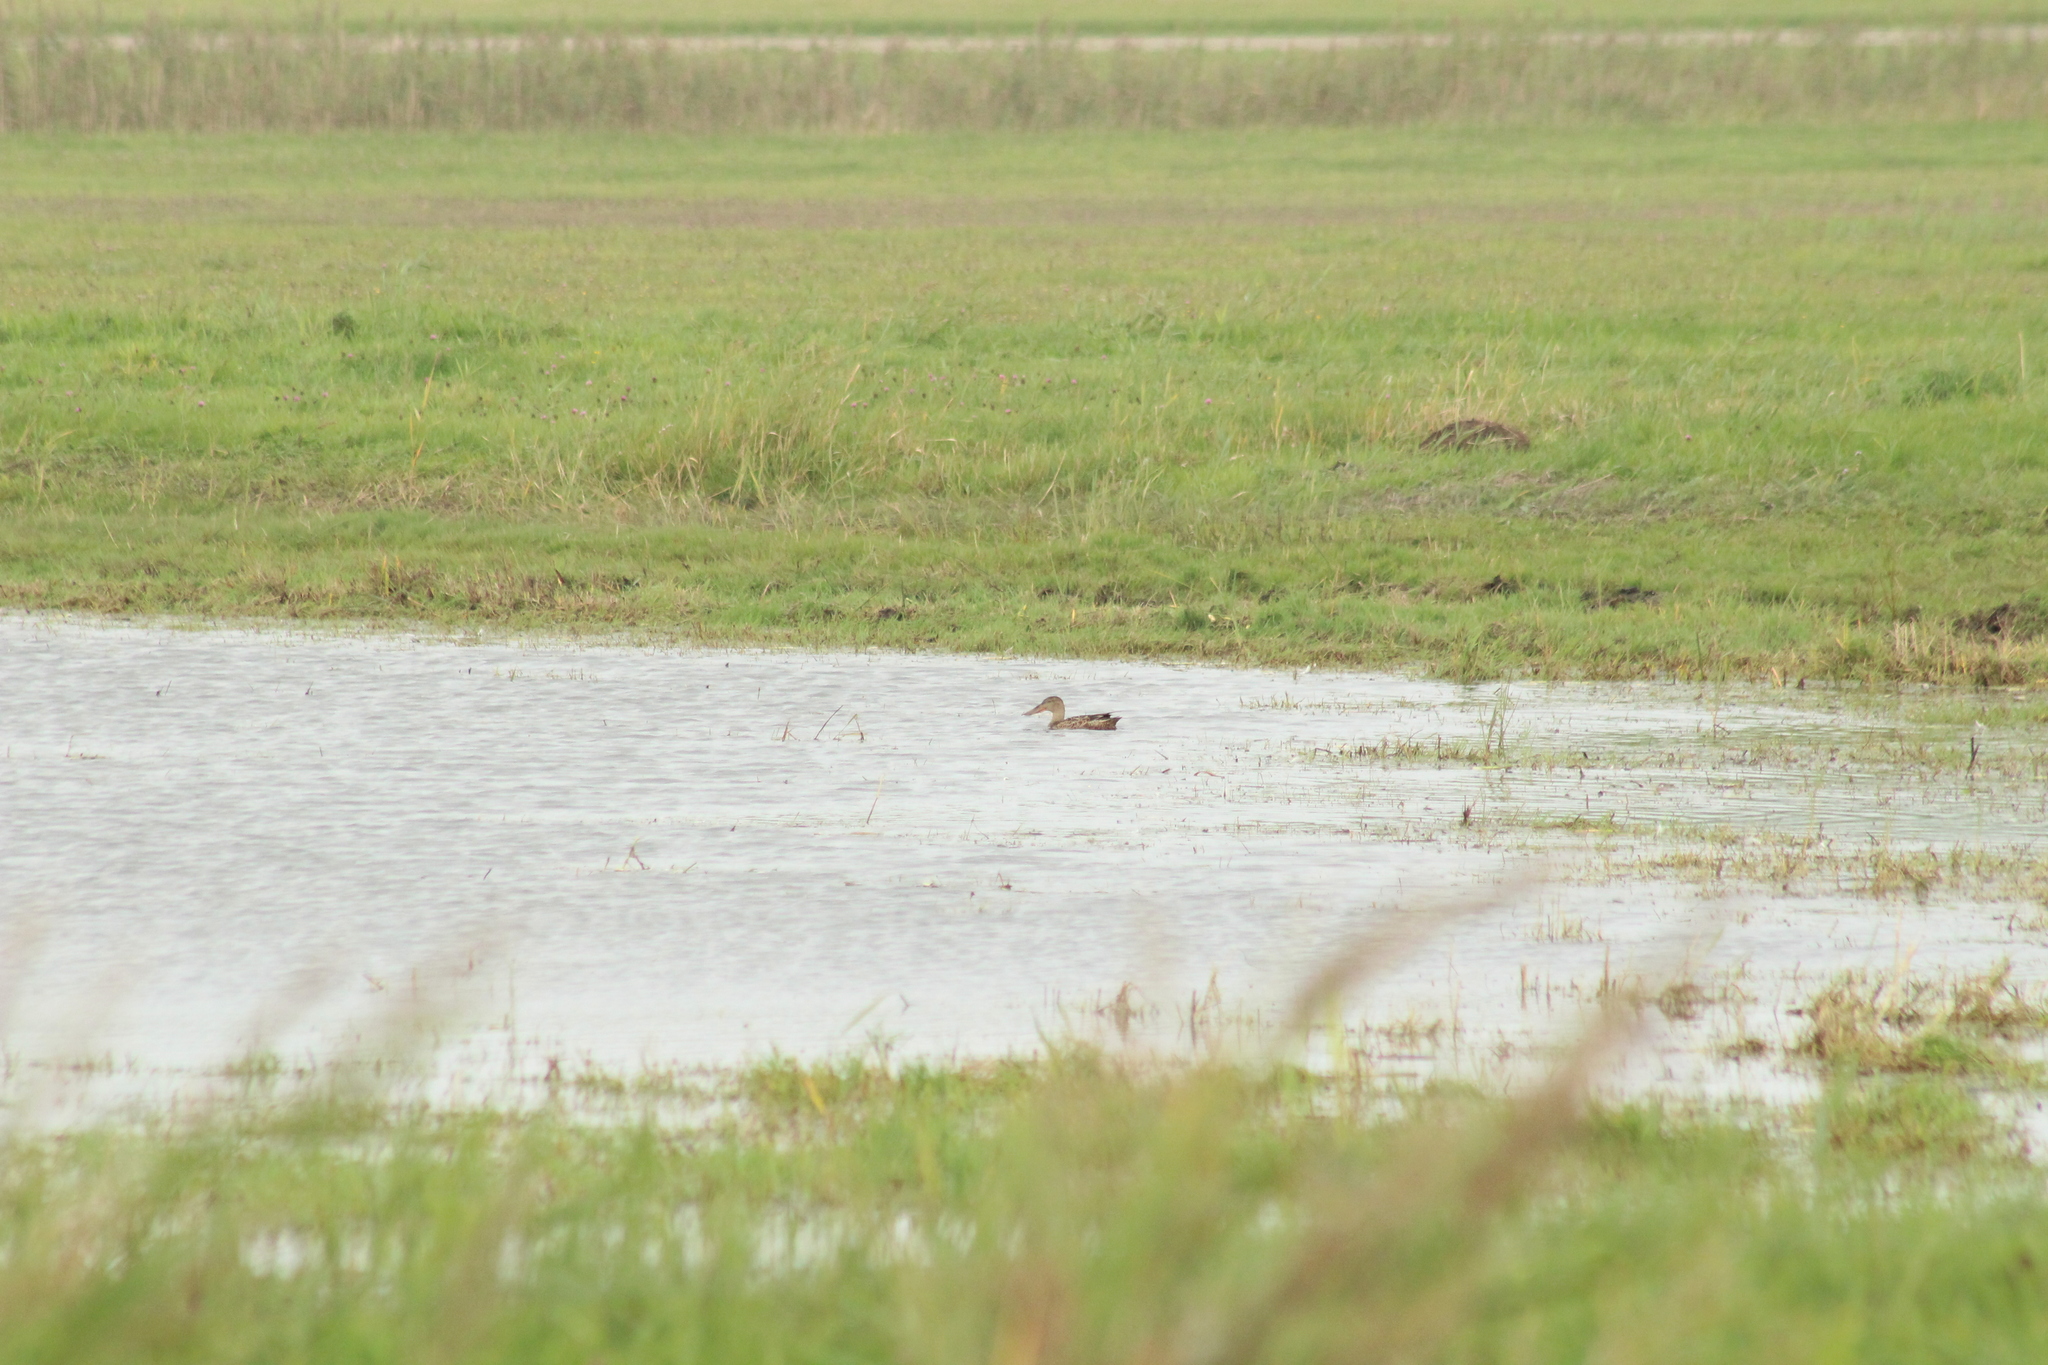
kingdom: Animalia
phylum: Chordata
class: Aves
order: Anseriformes
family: Anatidae
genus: Spatula
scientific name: Spatula clypeata
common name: Northern shoveler
